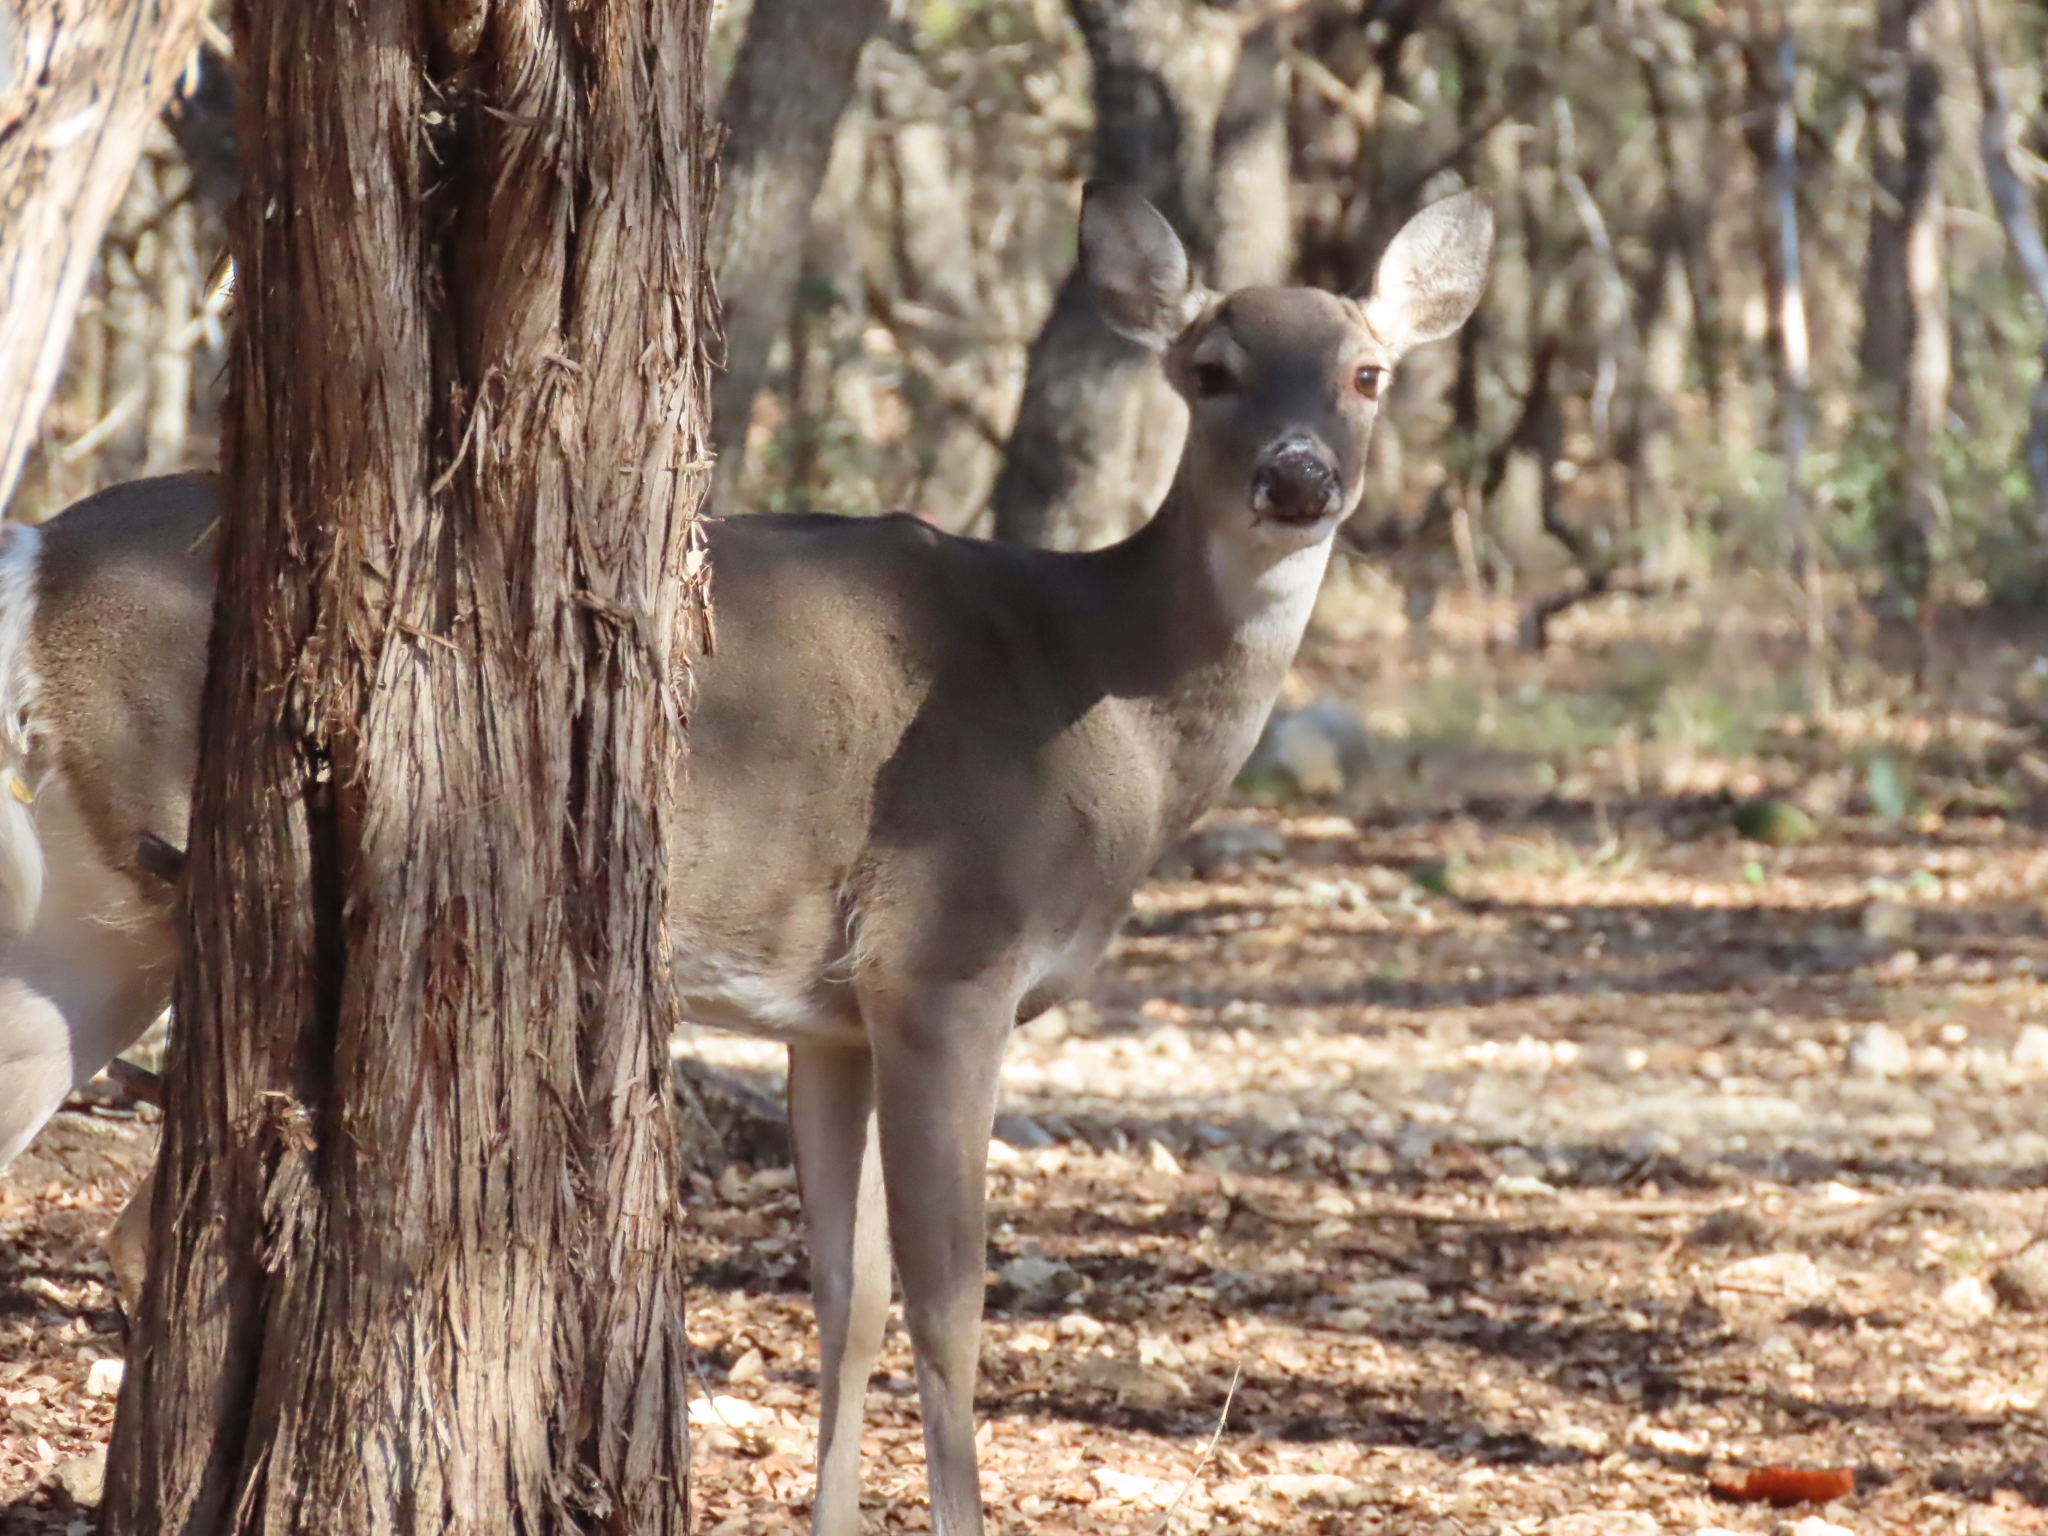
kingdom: Animalia
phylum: Chordata
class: Mammalia
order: Artiodactyla
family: Cervidae
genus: Odocoileus
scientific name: Odocoileus virginianus
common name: White-tailed deer
